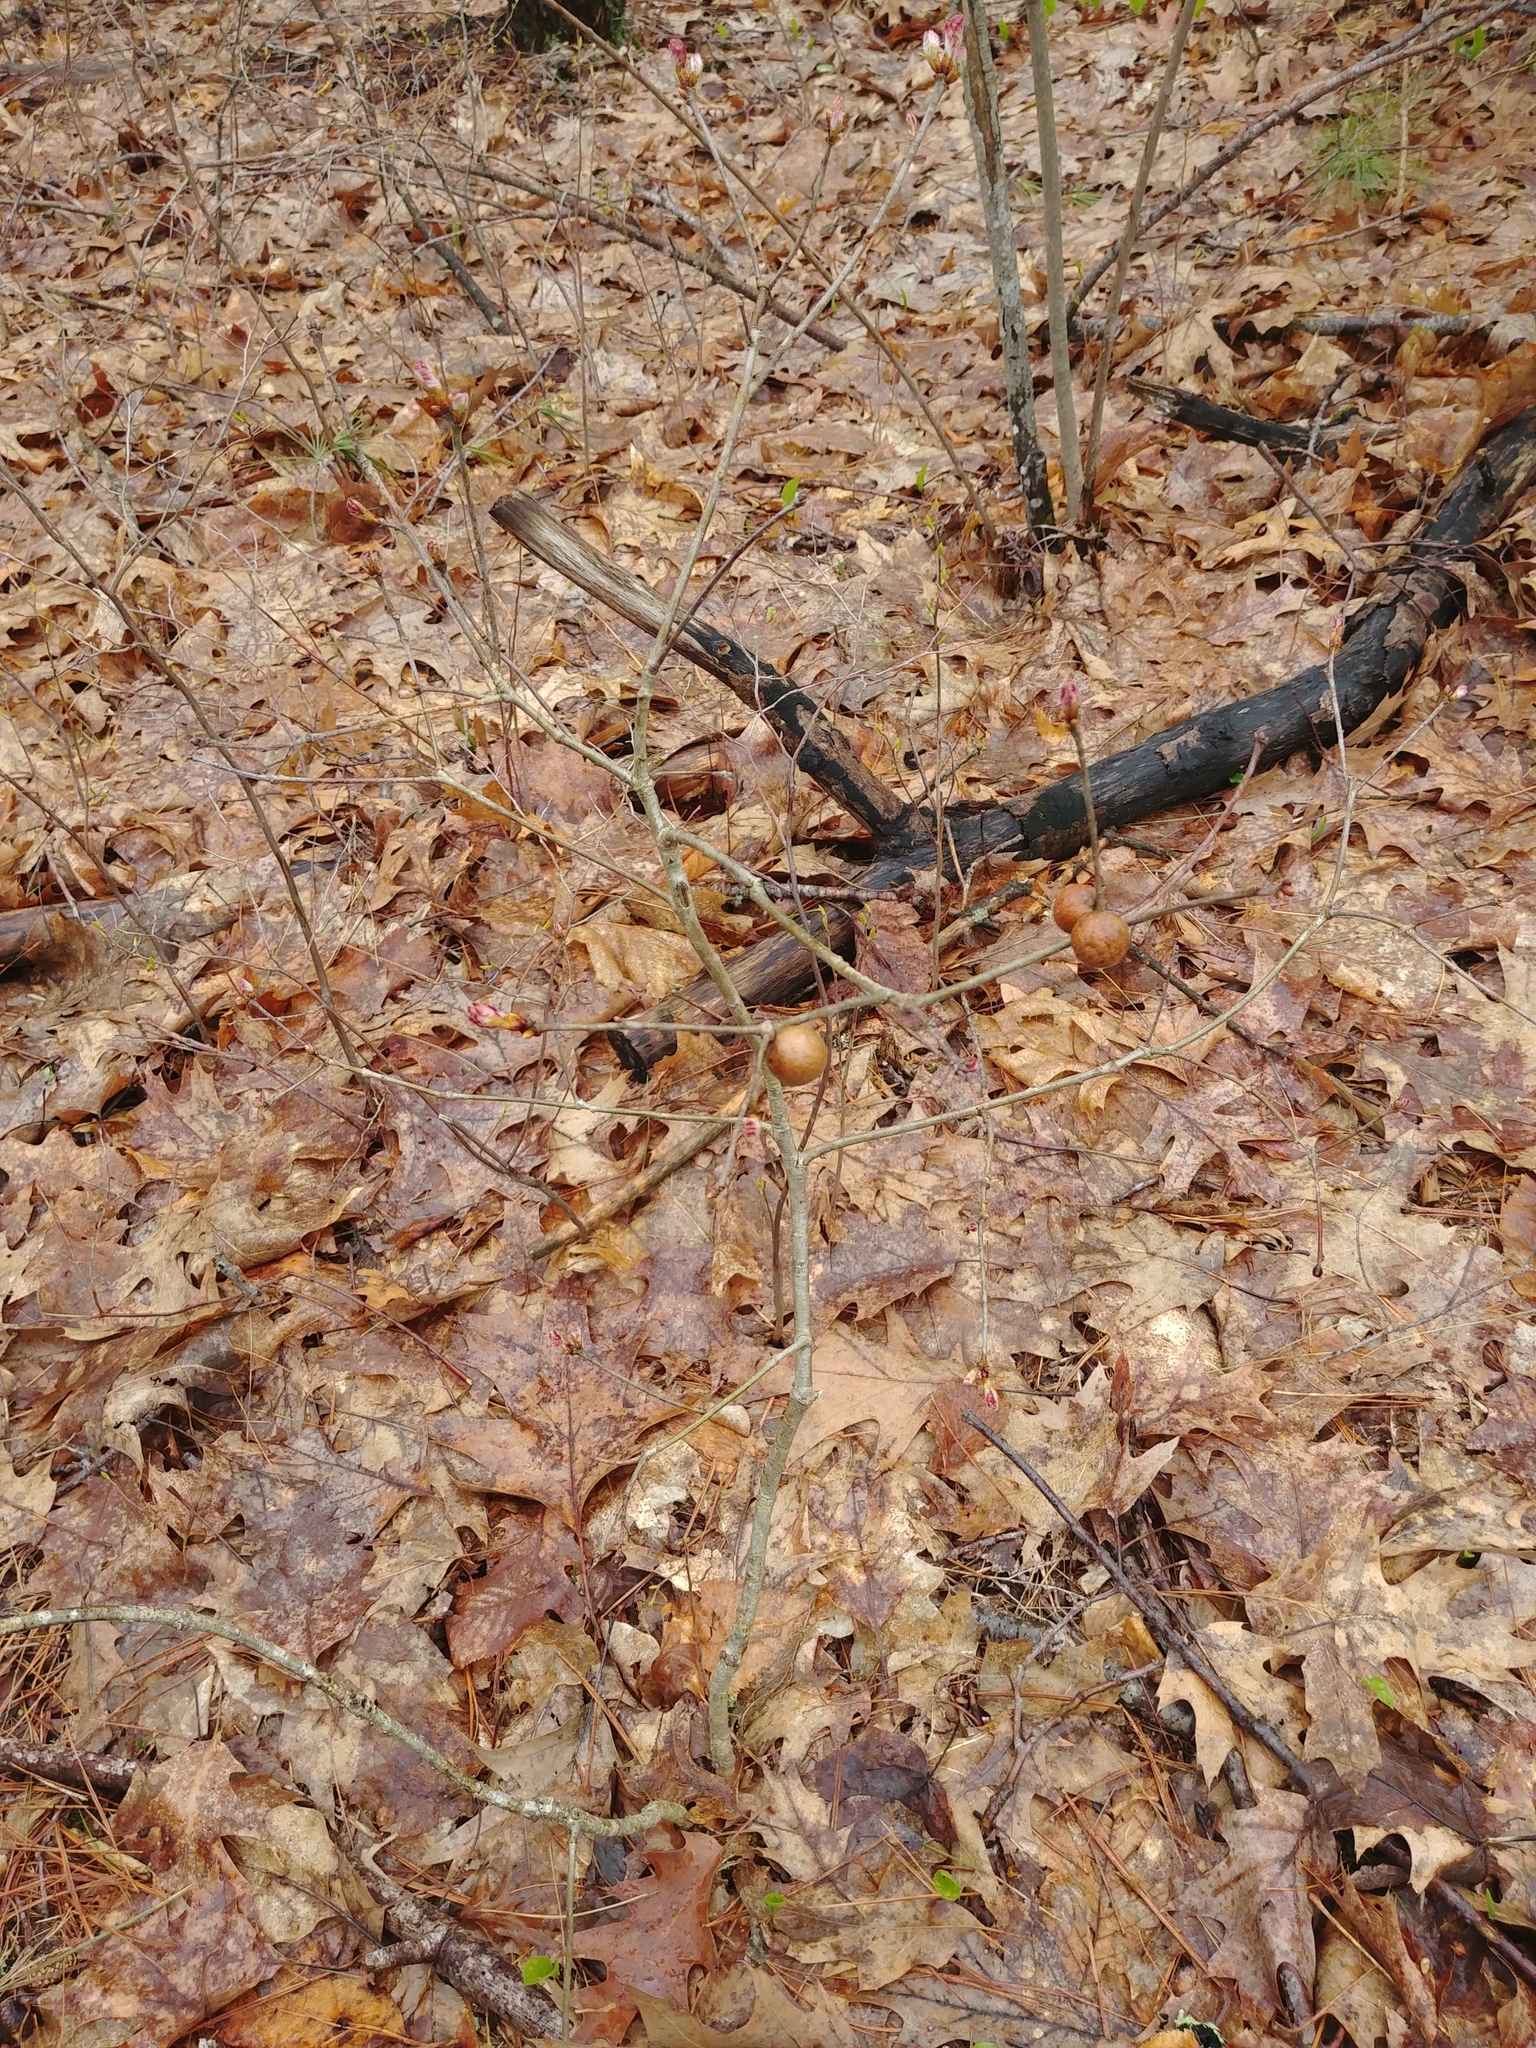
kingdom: Animalia
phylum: Arthropoda
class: Insecta
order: Hymenoptera
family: Cynipidae
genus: Disholcaspis
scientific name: Disholcaspis quercusglobulus
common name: Round bullet gall wasp
